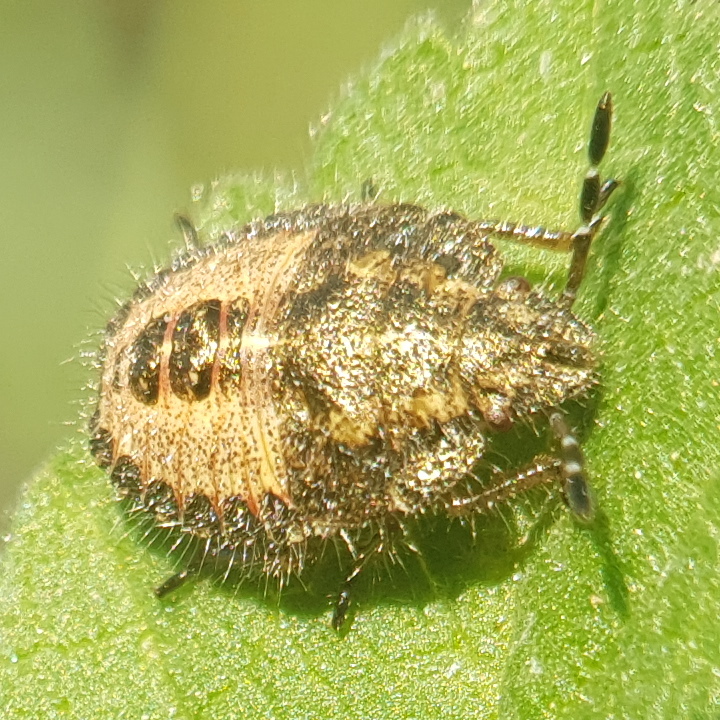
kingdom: Animalia
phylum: Arthropoda
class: Insecta
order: Hemiptera
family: Pentatomidae
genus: Dolycoris
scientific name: Dolycoris baccarum
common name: Sloe bug
